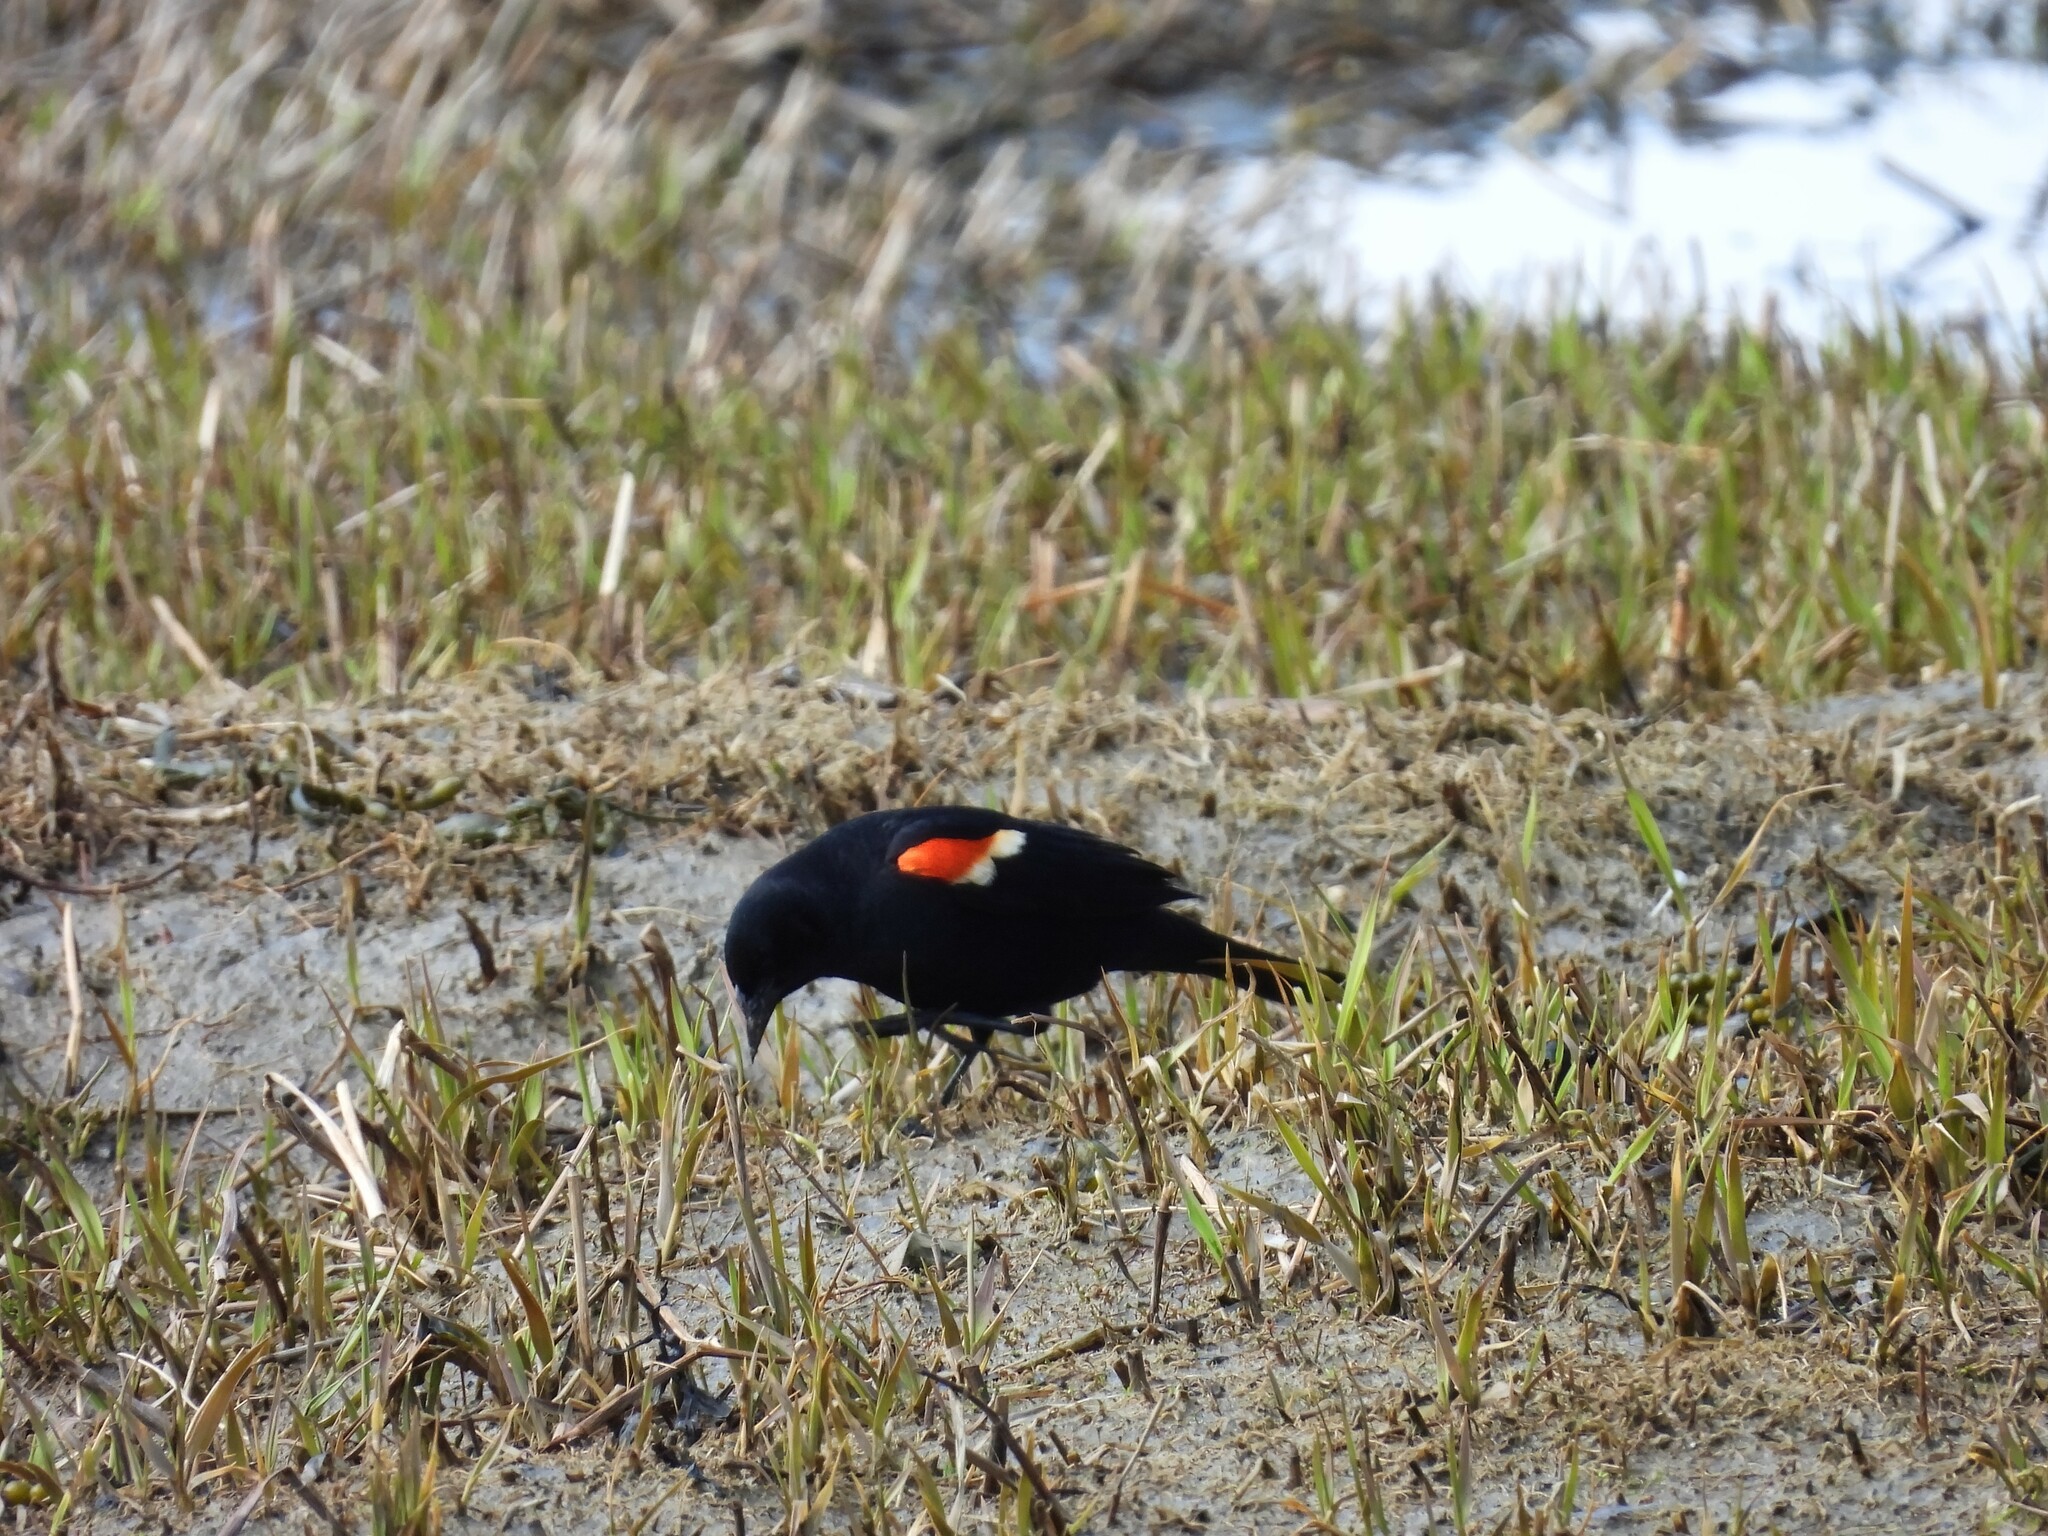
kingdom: Animalia
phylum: Chordata
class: Aves
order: Passeriformes
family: Icteridae
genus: Agelaius
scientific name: Agelaius phoeniceus
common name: Red-winged blackbird
